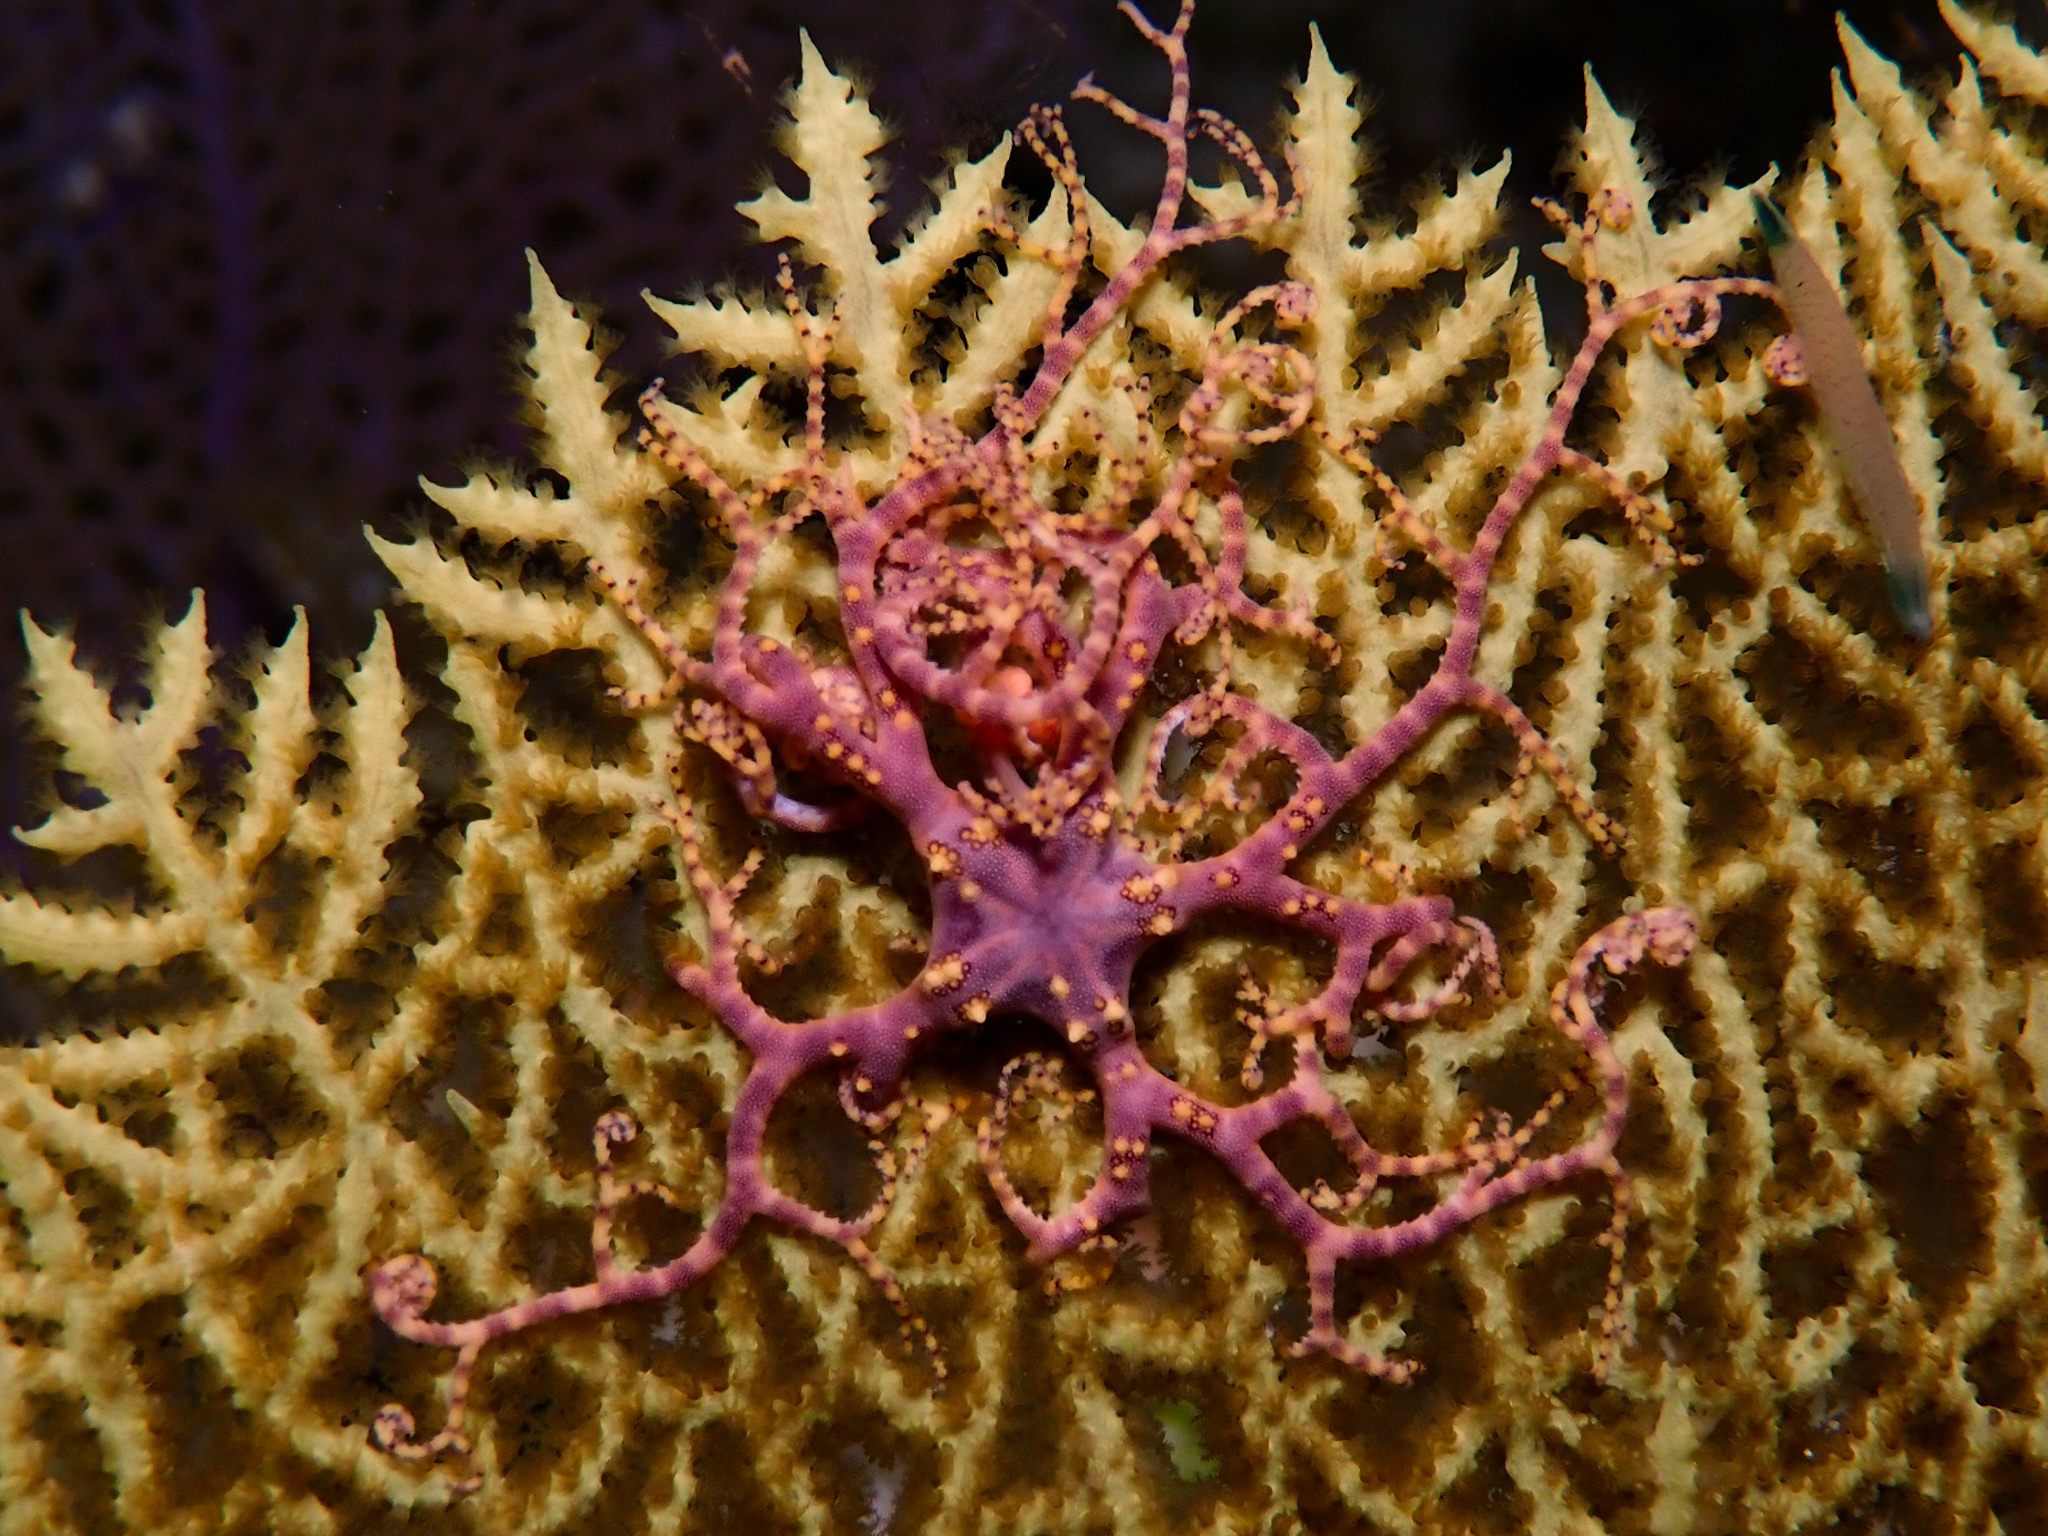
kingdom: Animalia
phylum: Echinodermata
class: Ophiuroidea
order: Euryalida
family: Gorgonocephalidae
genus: Astrophyton
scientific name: Astrophyton muricatum
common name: Basket starfish
